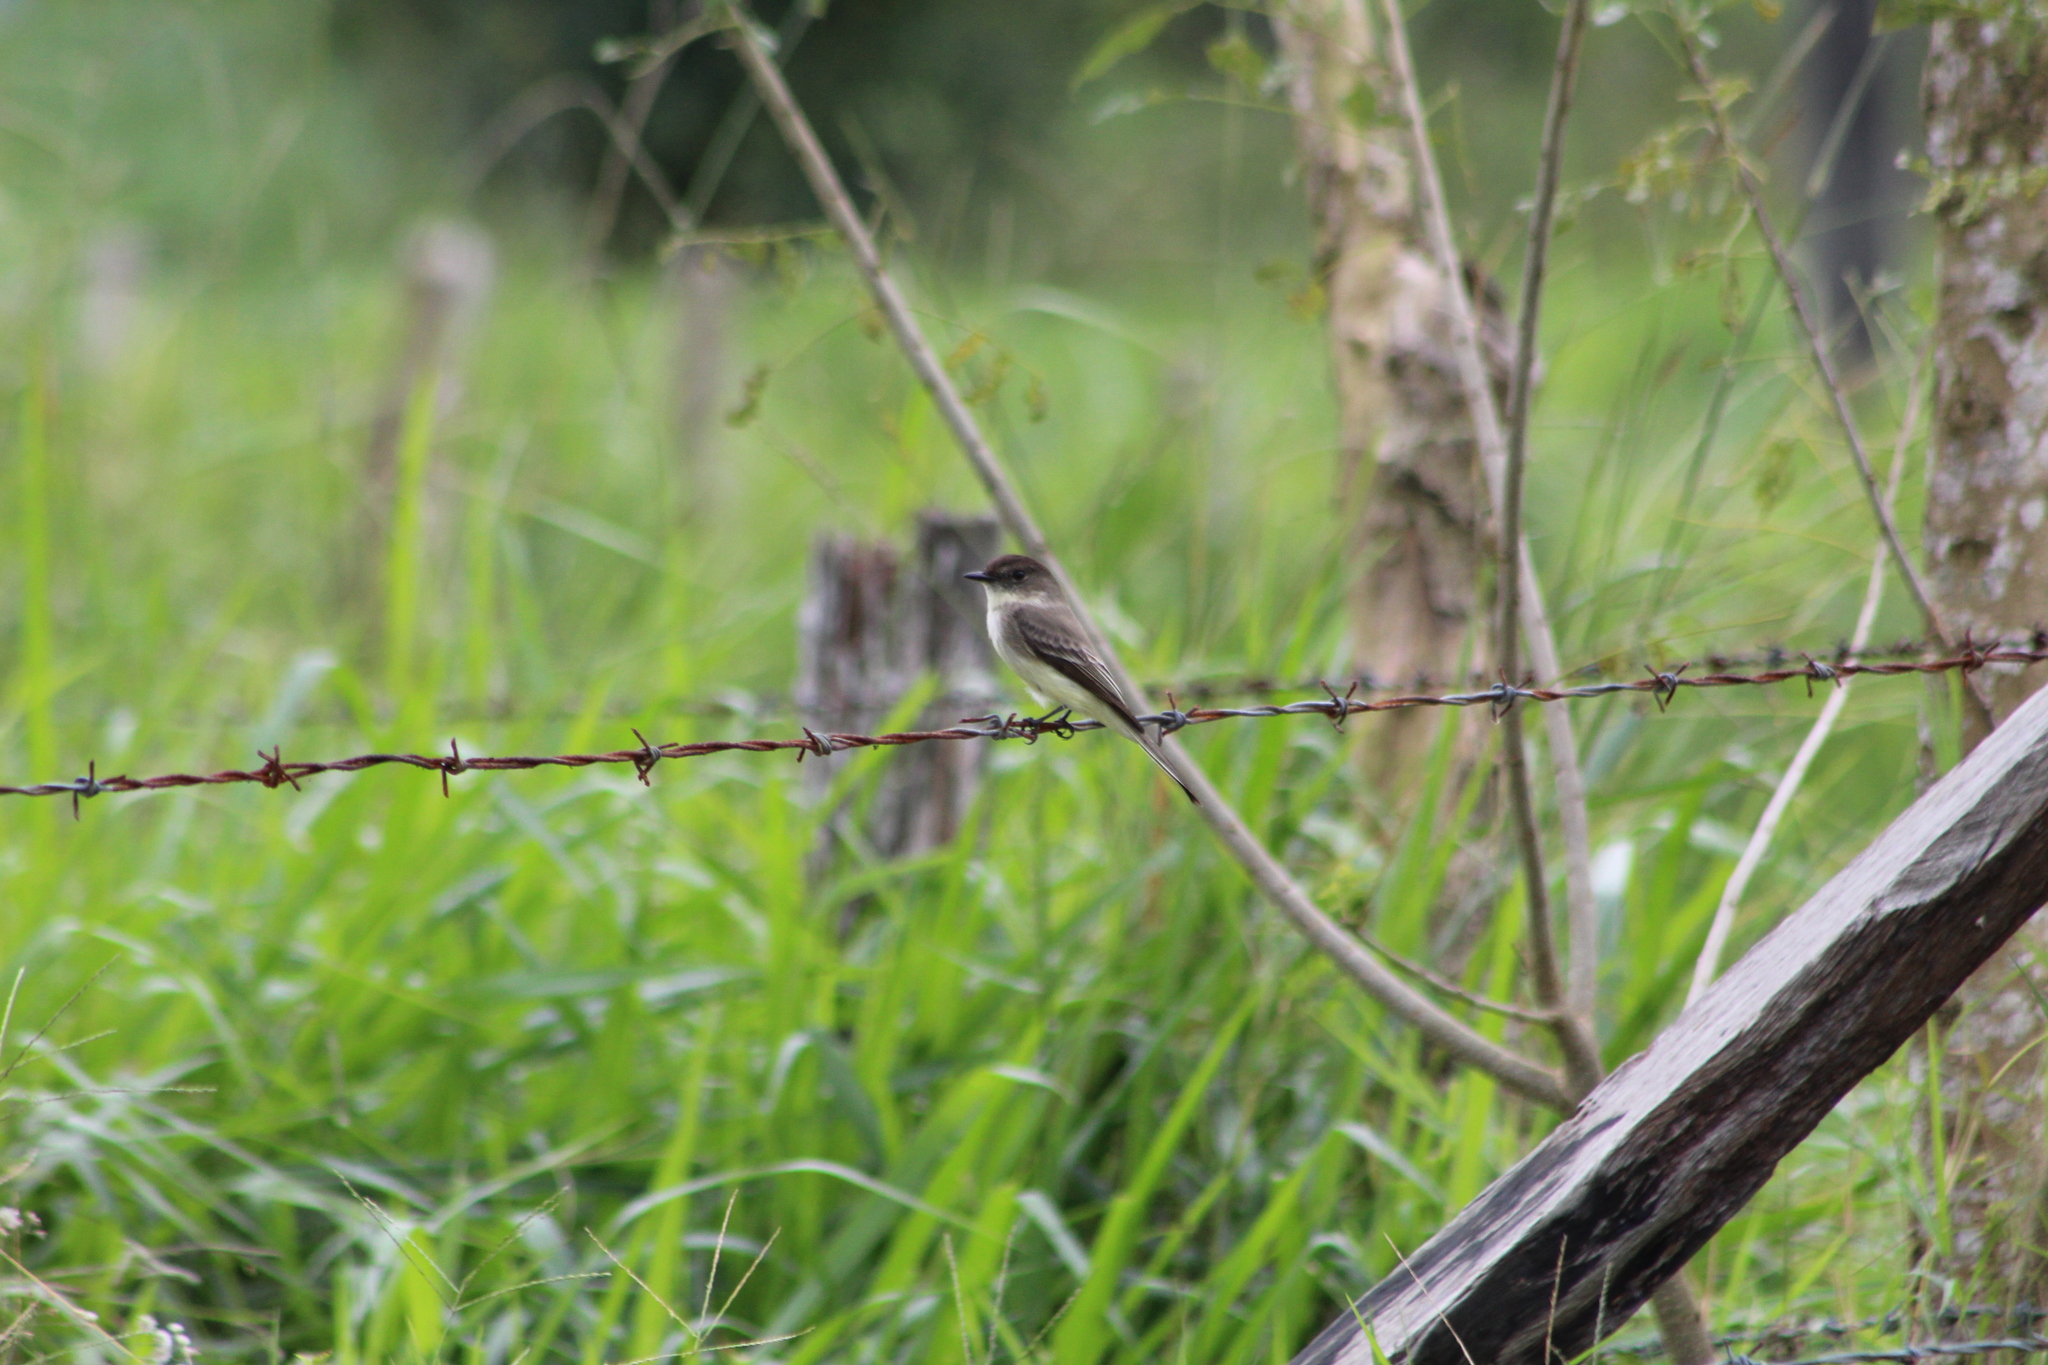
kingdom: Animalia
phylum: Chordata
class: Aves
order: Passeriformes
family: Tyrannidae
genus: Sayornis
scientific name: Sayornis phoebe
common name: Eastern phoebe
